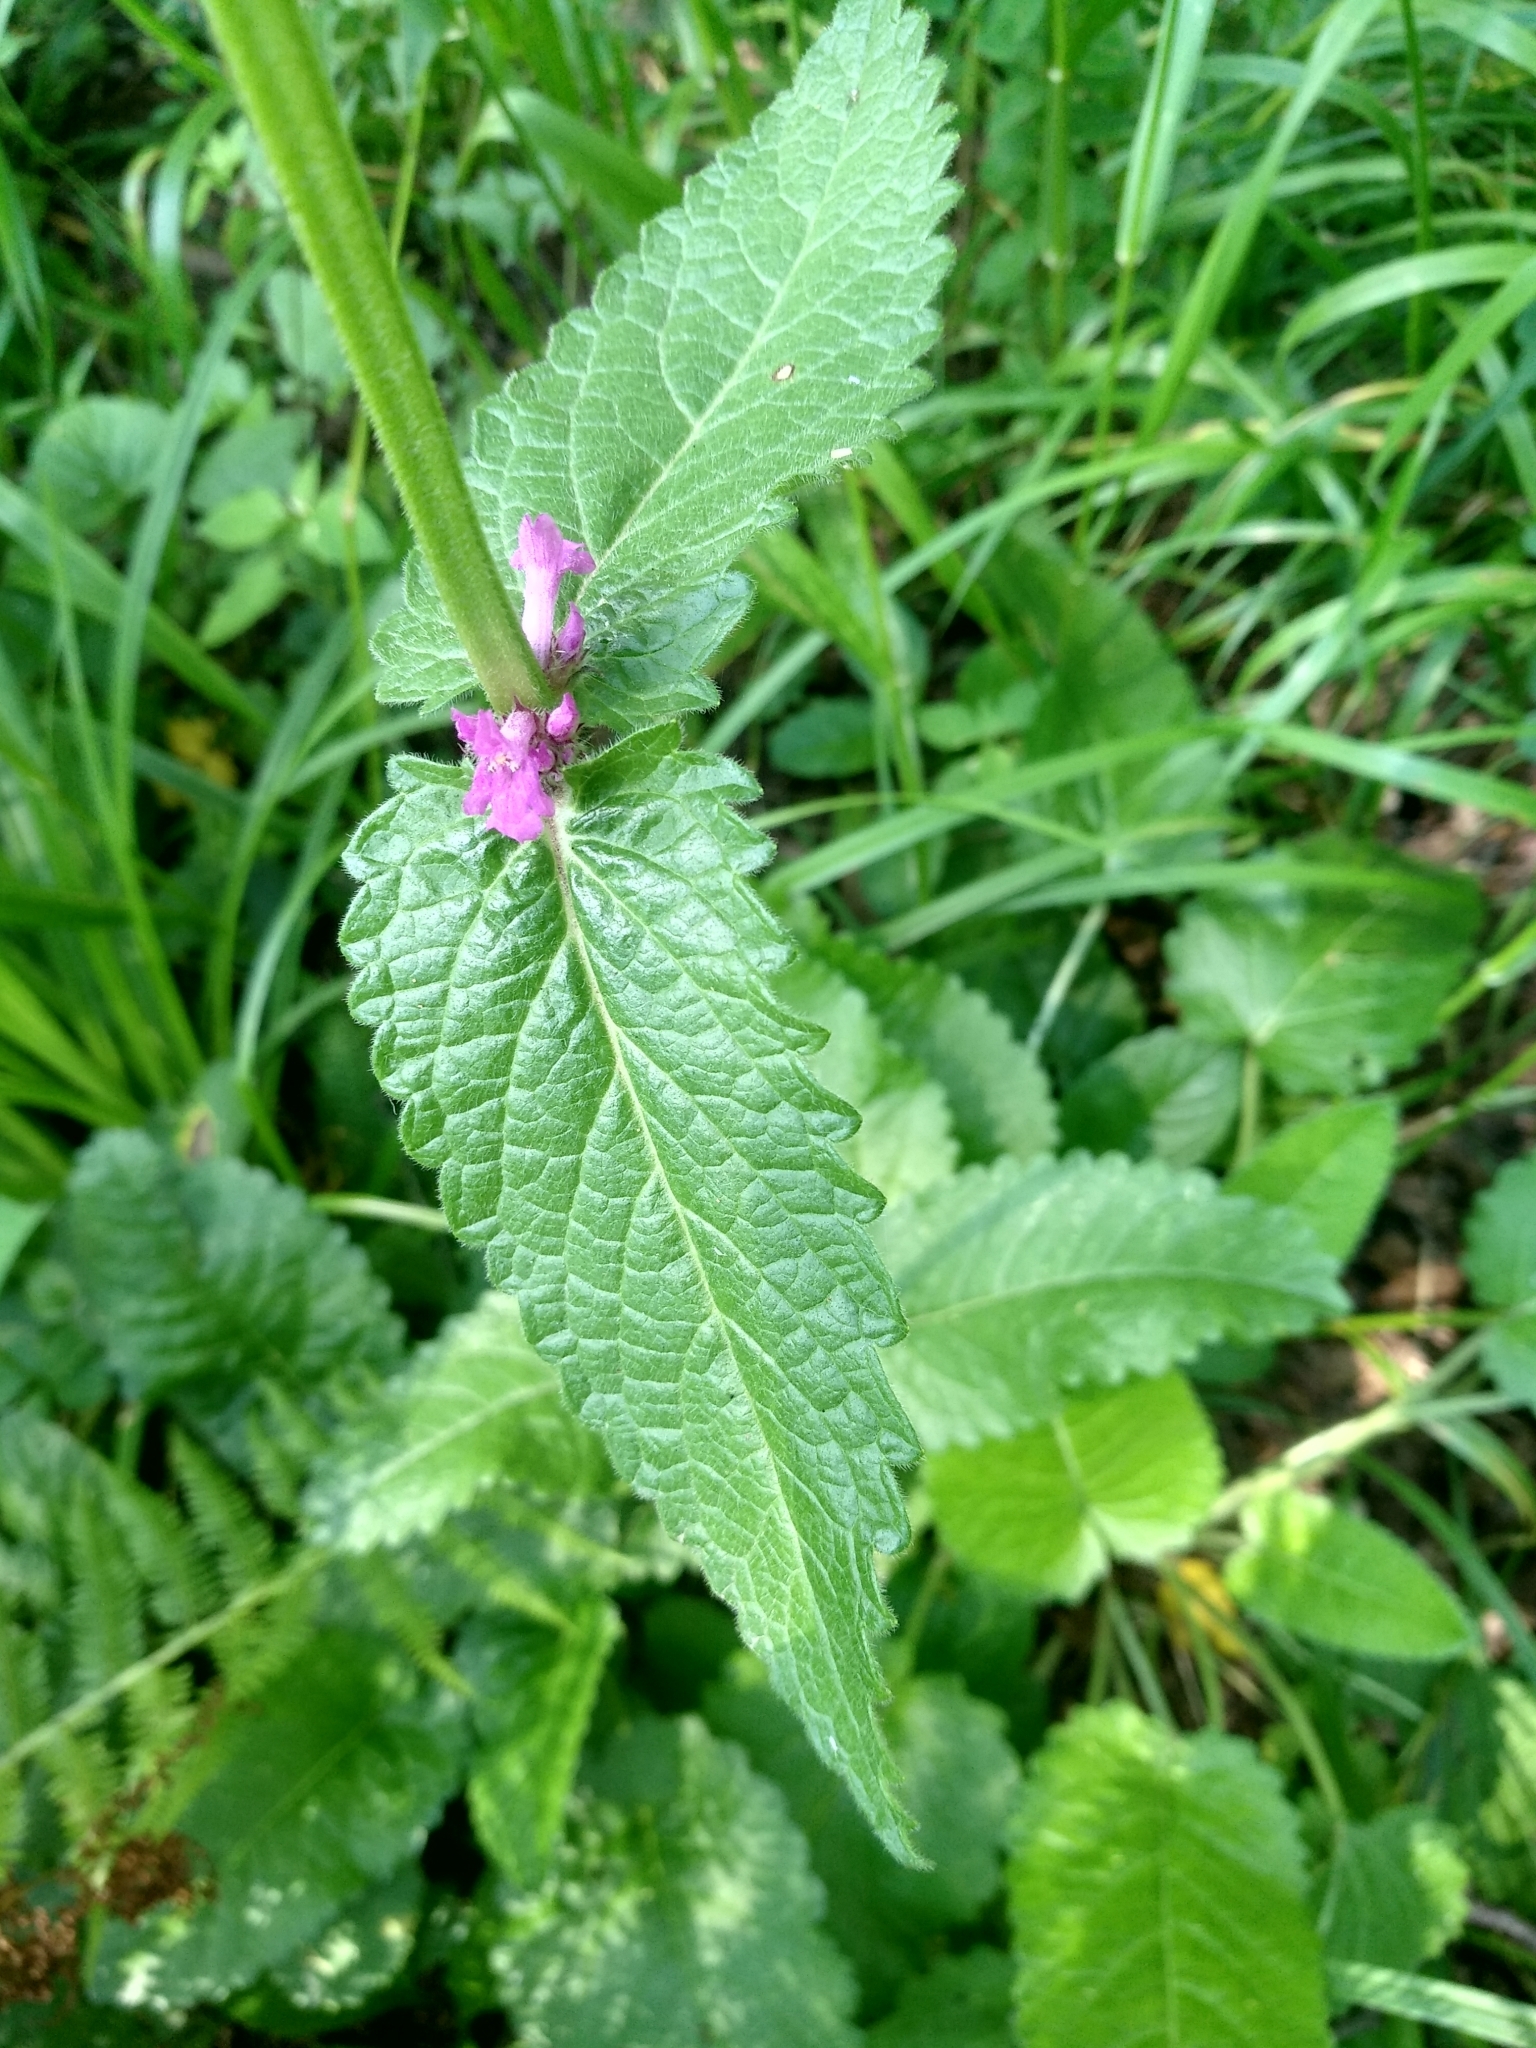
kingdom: Plantae
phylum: Tracheophyta
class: Magnoliopsida
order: Lamiales
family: Lamiaceae
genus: Betonica
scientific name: Betonica officinalis
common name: Bishop's-wort
